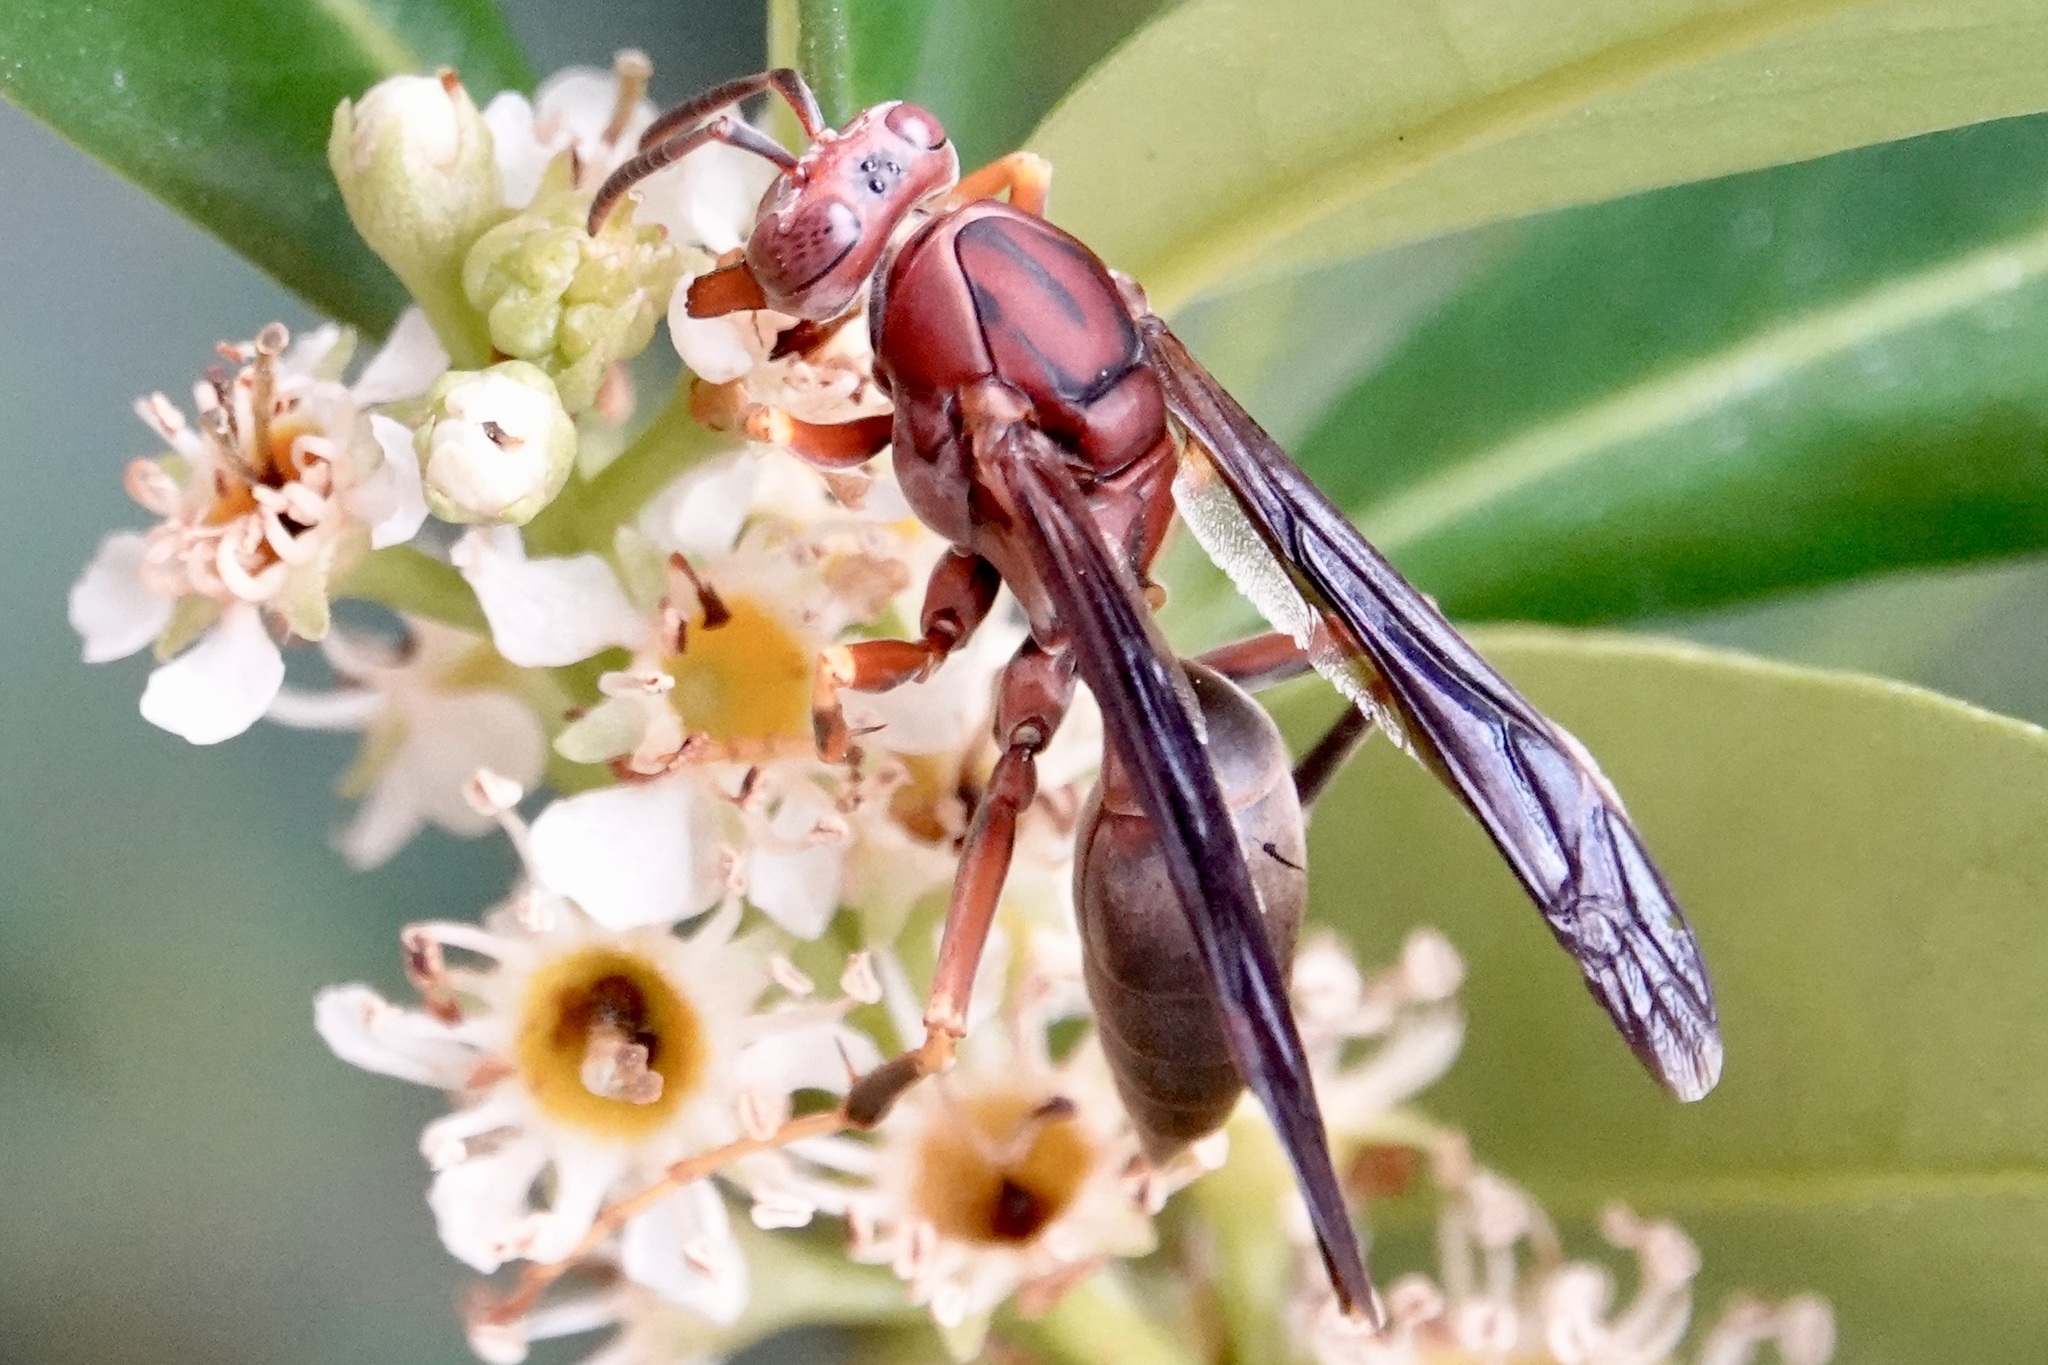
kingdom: Animalia
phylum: Arthropoda
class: Insecta
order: Hymenoptera
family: Eumenidae
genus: Polistes
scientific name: Polistes metricus
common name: Metric paper wasp
